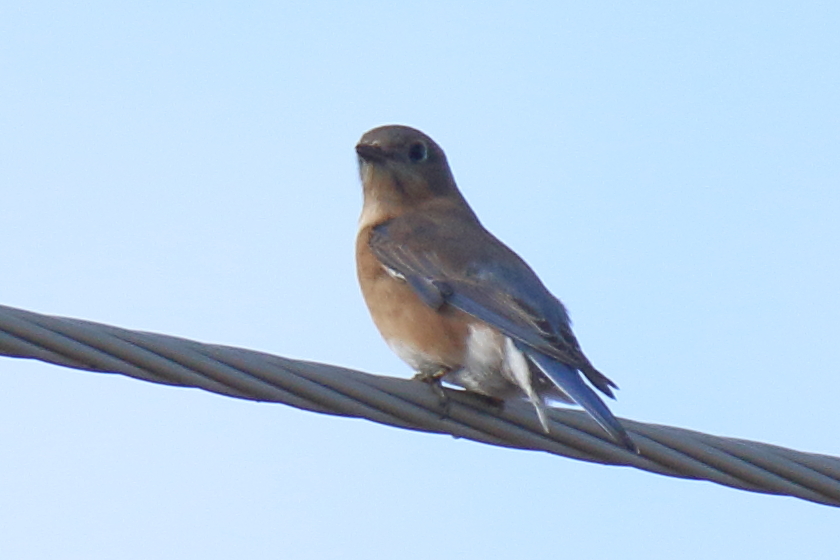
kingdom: Animalia
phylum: Chordata
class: Aves
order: Passeriformes
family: Turdidae
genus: Sialia
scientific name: Sialia sialis
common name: Eastern bluebird
